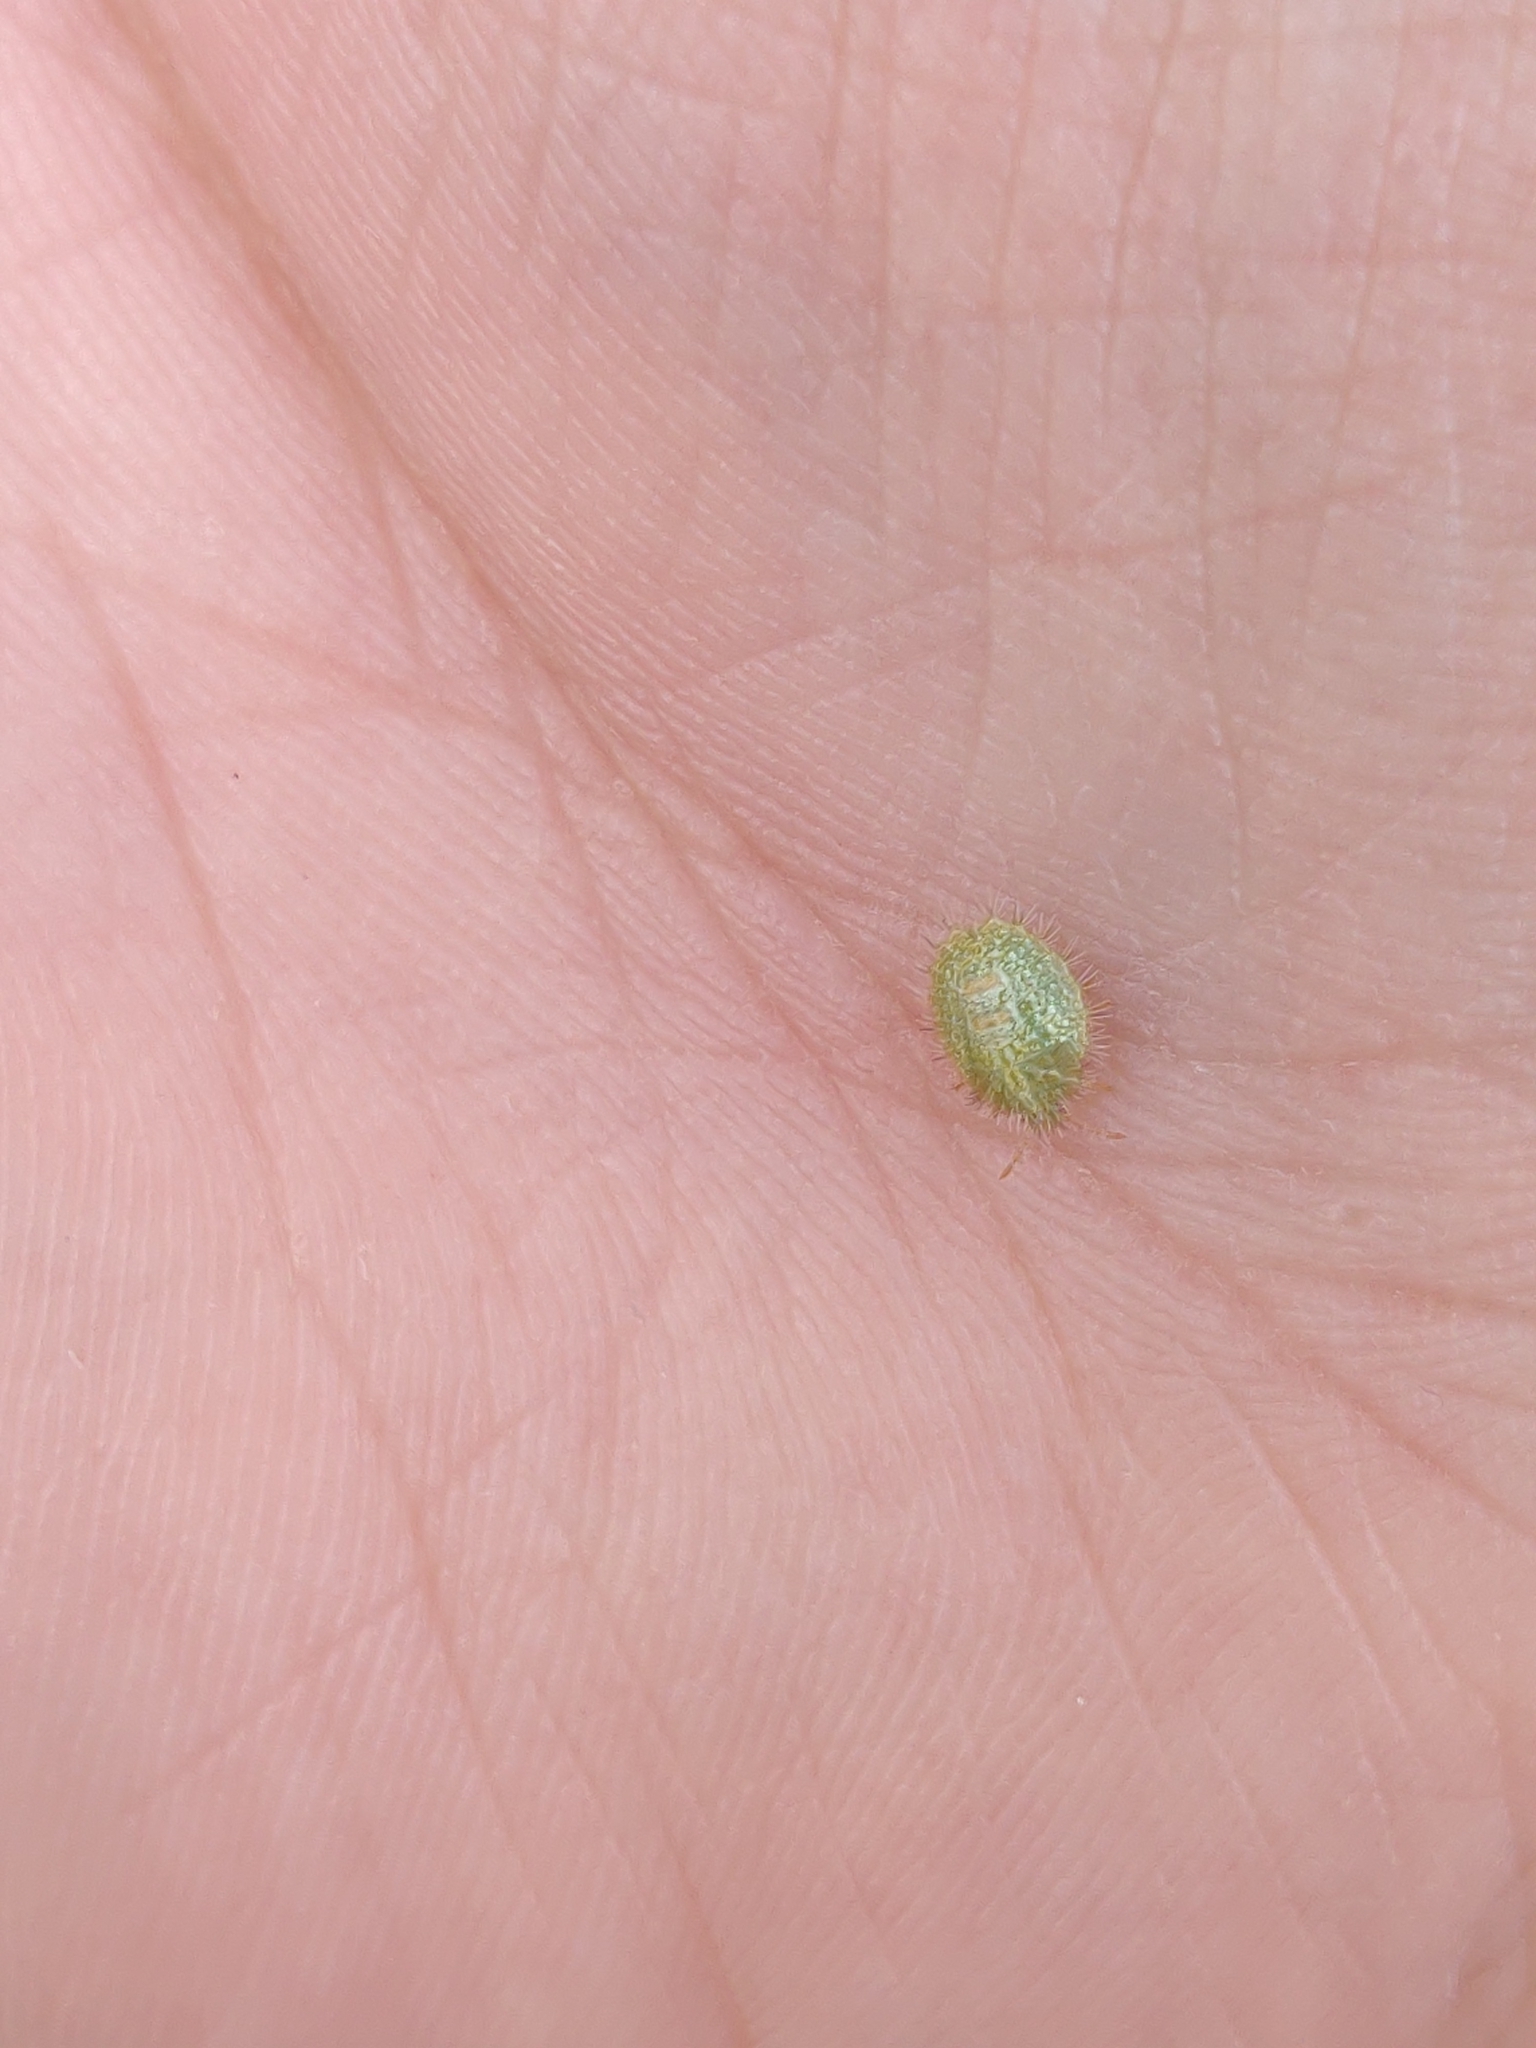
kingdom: Animalia
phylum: Arthropoda
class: Insecta
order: Hemiptera
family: Plataspidae
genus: Megacopta
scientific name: Megacopta cribraria
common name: Bean plataspid
